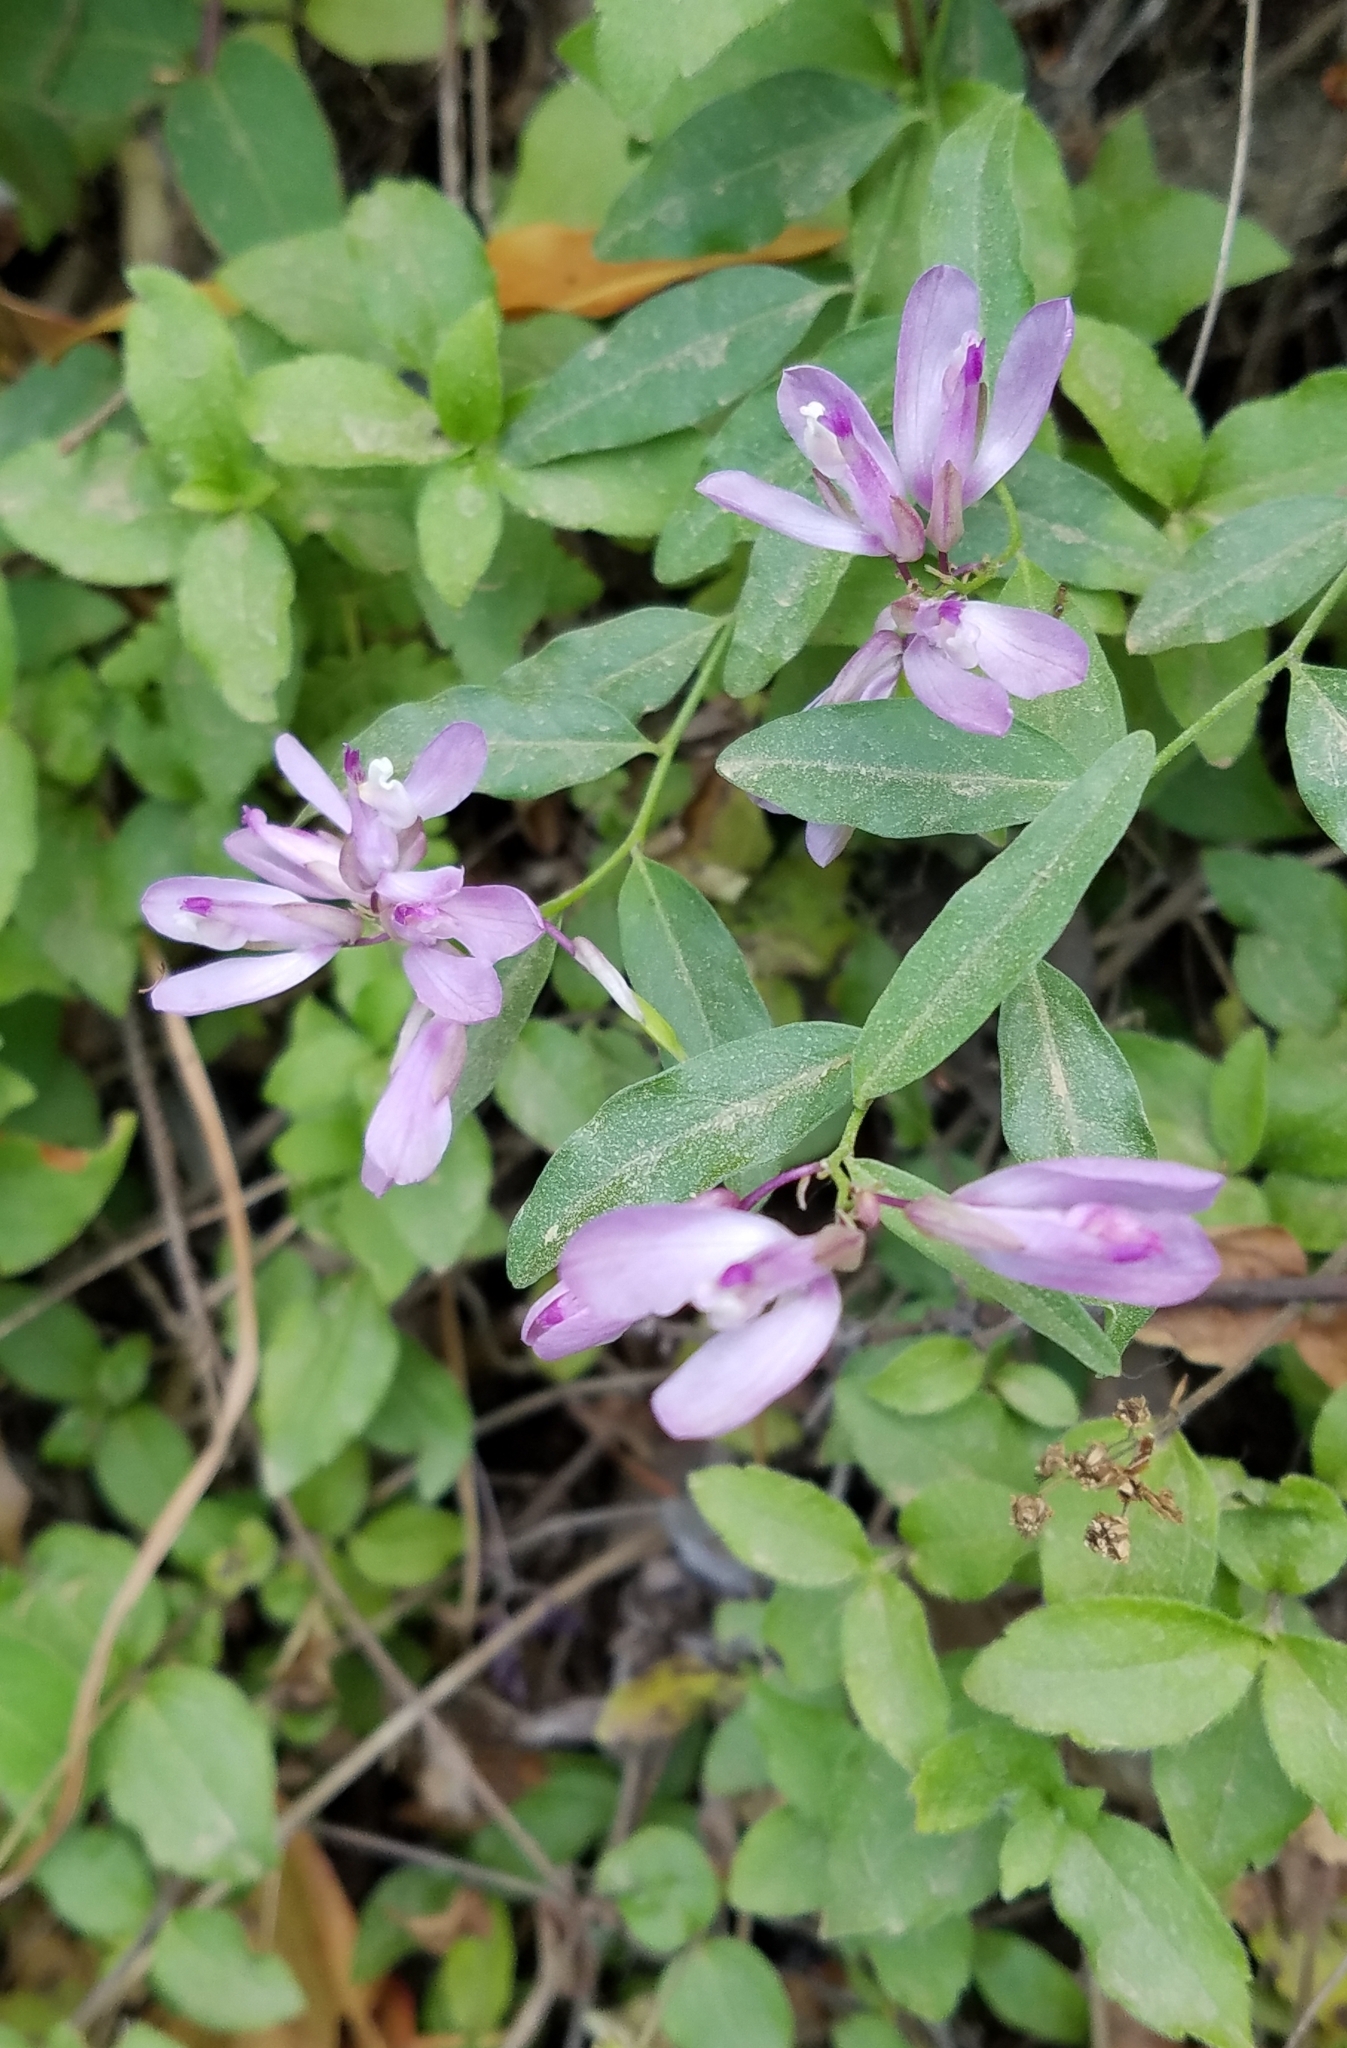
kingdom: Plantae
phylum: Tracheophyta
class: Magnoliopsida
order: Fabales
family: Polygalaceae
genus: Rhinotropis
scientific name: Rhinotropis californica
